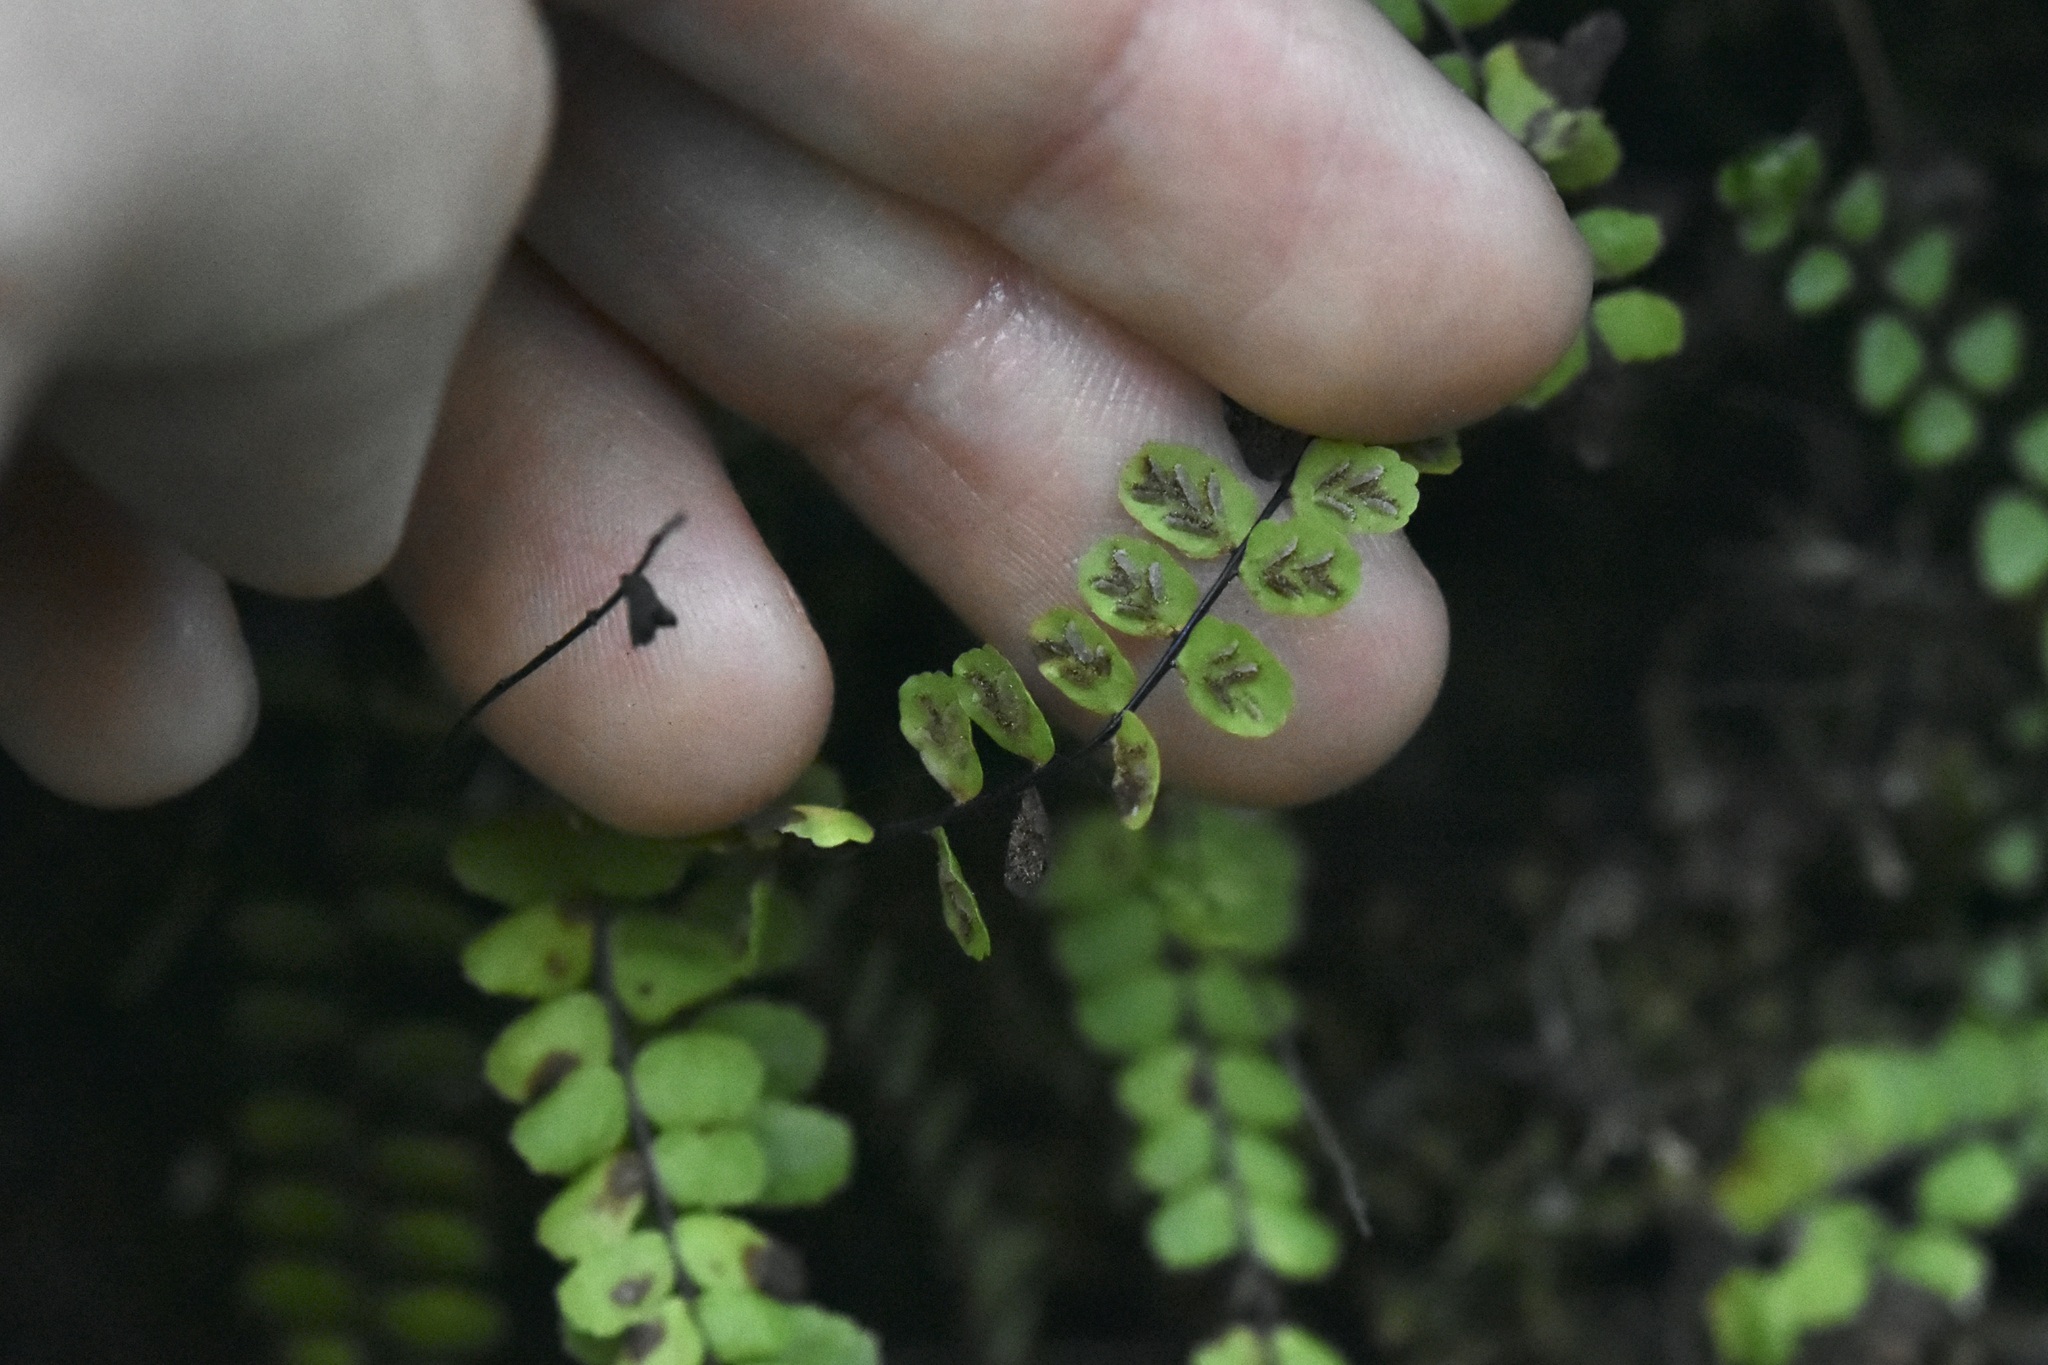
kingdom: Plantae
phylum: Tracheophyta
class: Polypodiopsida
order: Polypodiales
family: Aspleniaceae
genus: Asplenium
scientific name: Asplenium trichomanes
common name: Maidenhair spleenwort
